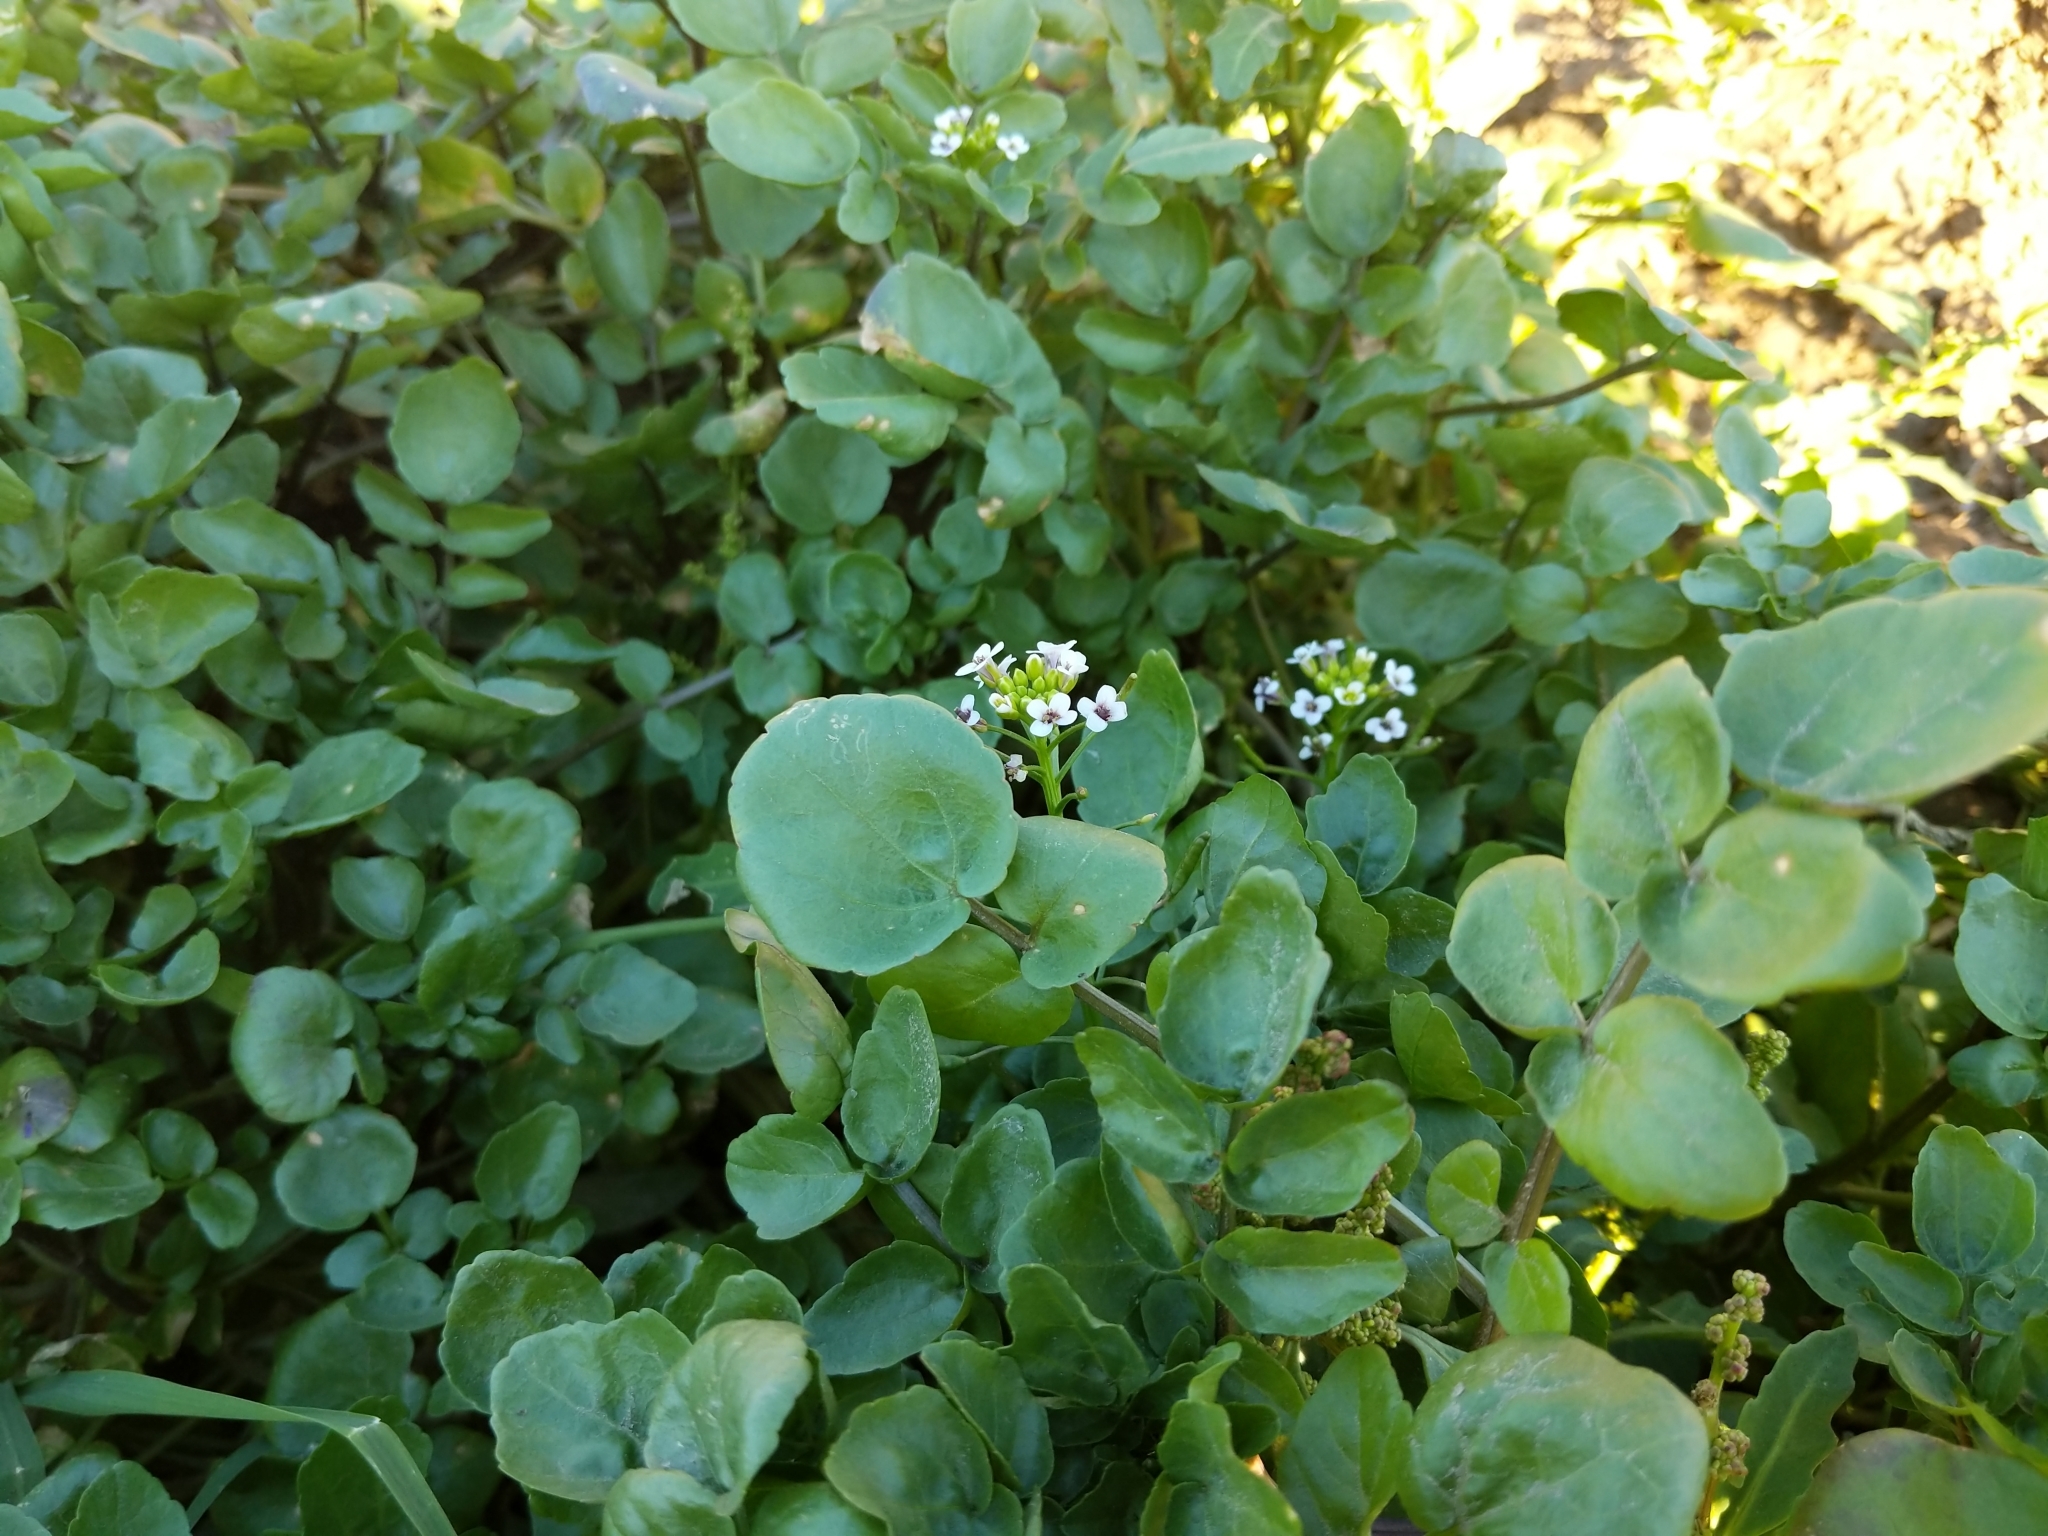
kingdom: Plantae
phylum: Tracheophyta
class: Magnoliopsida
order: Brassicales
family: Brassicaceae
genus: Nasturtium
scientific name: Nasturtium officinale
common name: Watercress
